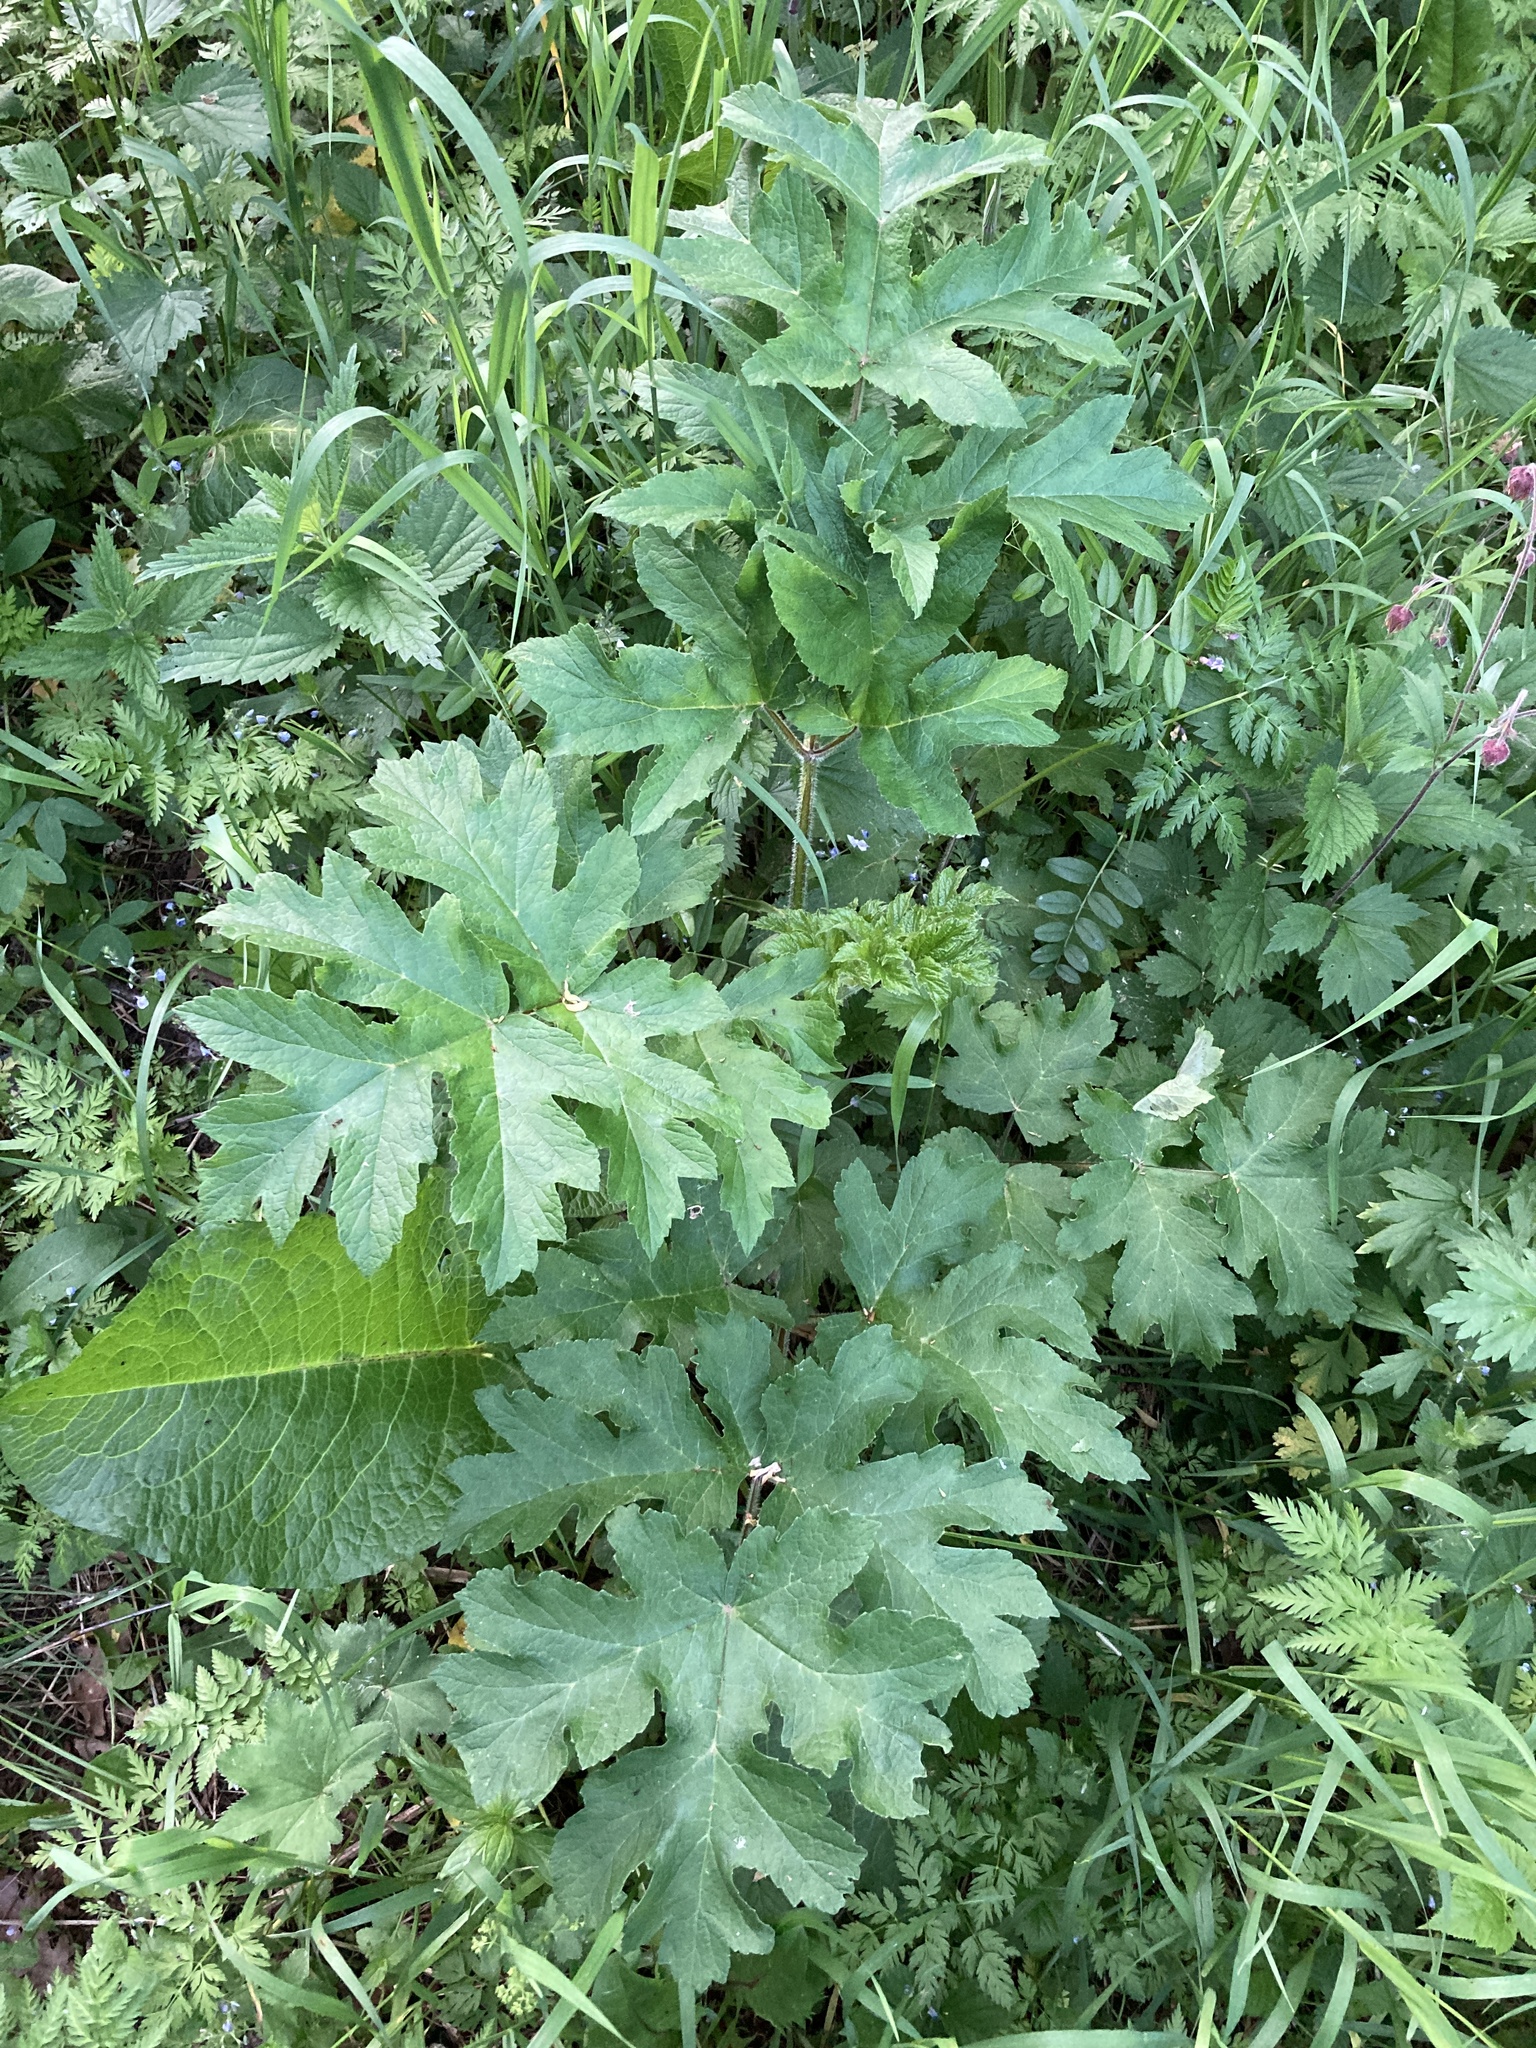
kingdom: Plantae
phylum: Tracheophyta
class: Magnoliopsida
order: Apiales
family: Apiaceae
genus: Heracleum
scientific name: Heracleum sphondylium
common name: Hogweed
